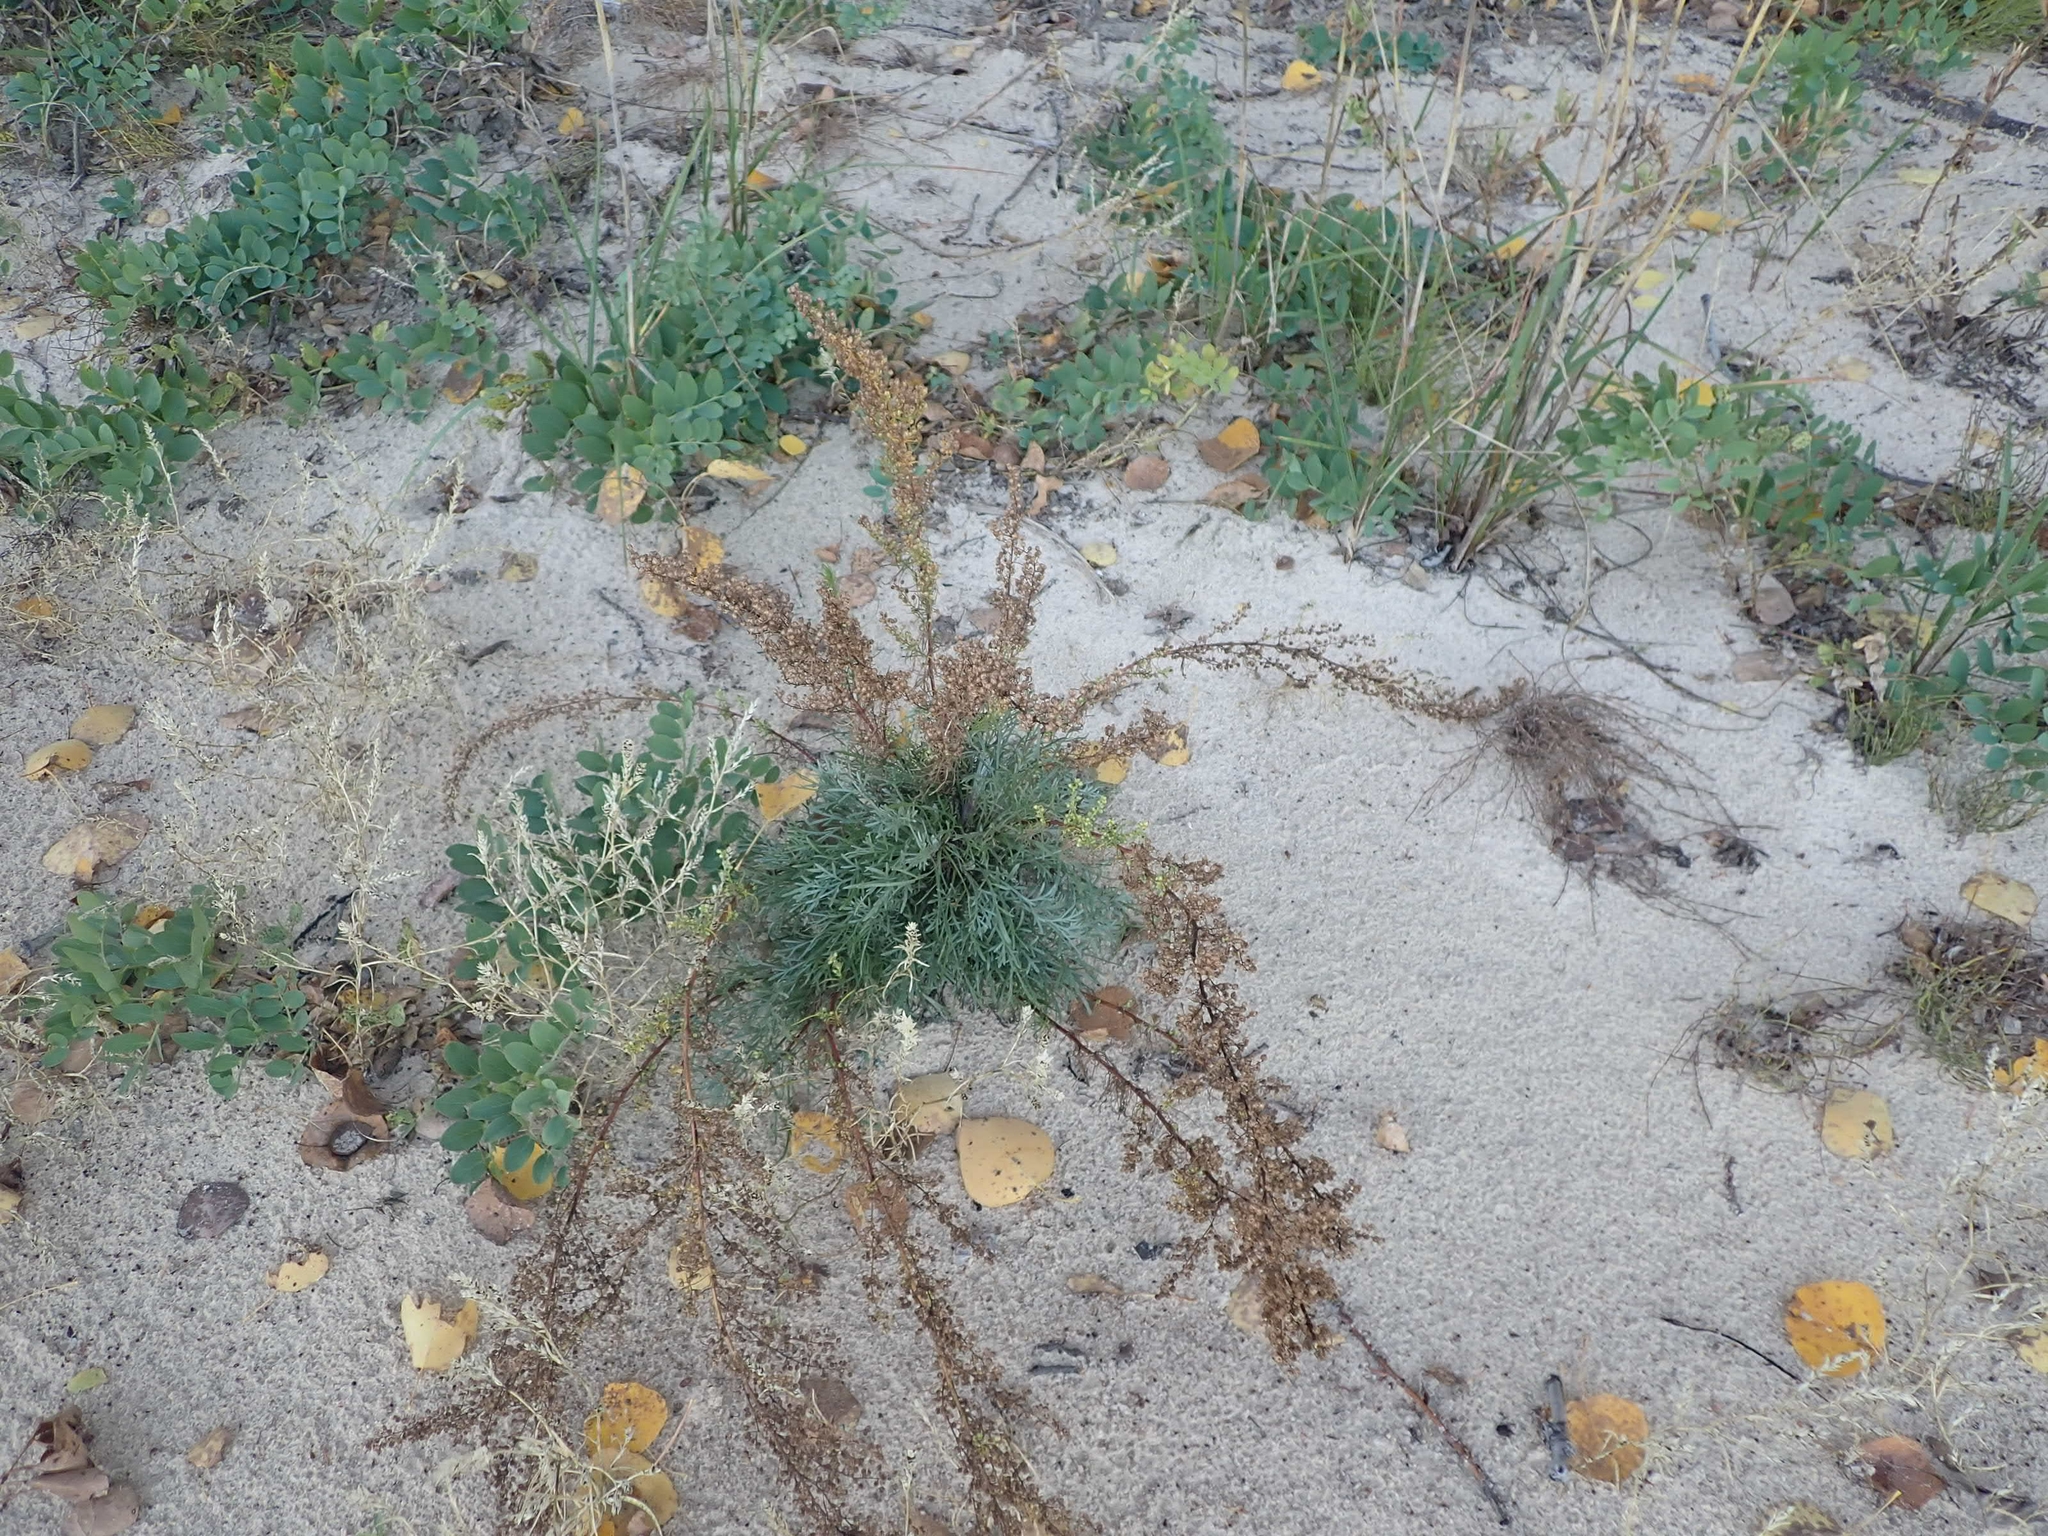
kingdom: Plantae
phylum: Tracheophyta
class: Magnoliopsida
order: Asterales
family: Asteraceae
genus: Artemisia
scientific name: Artemisia campestris
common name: Field wormwood
